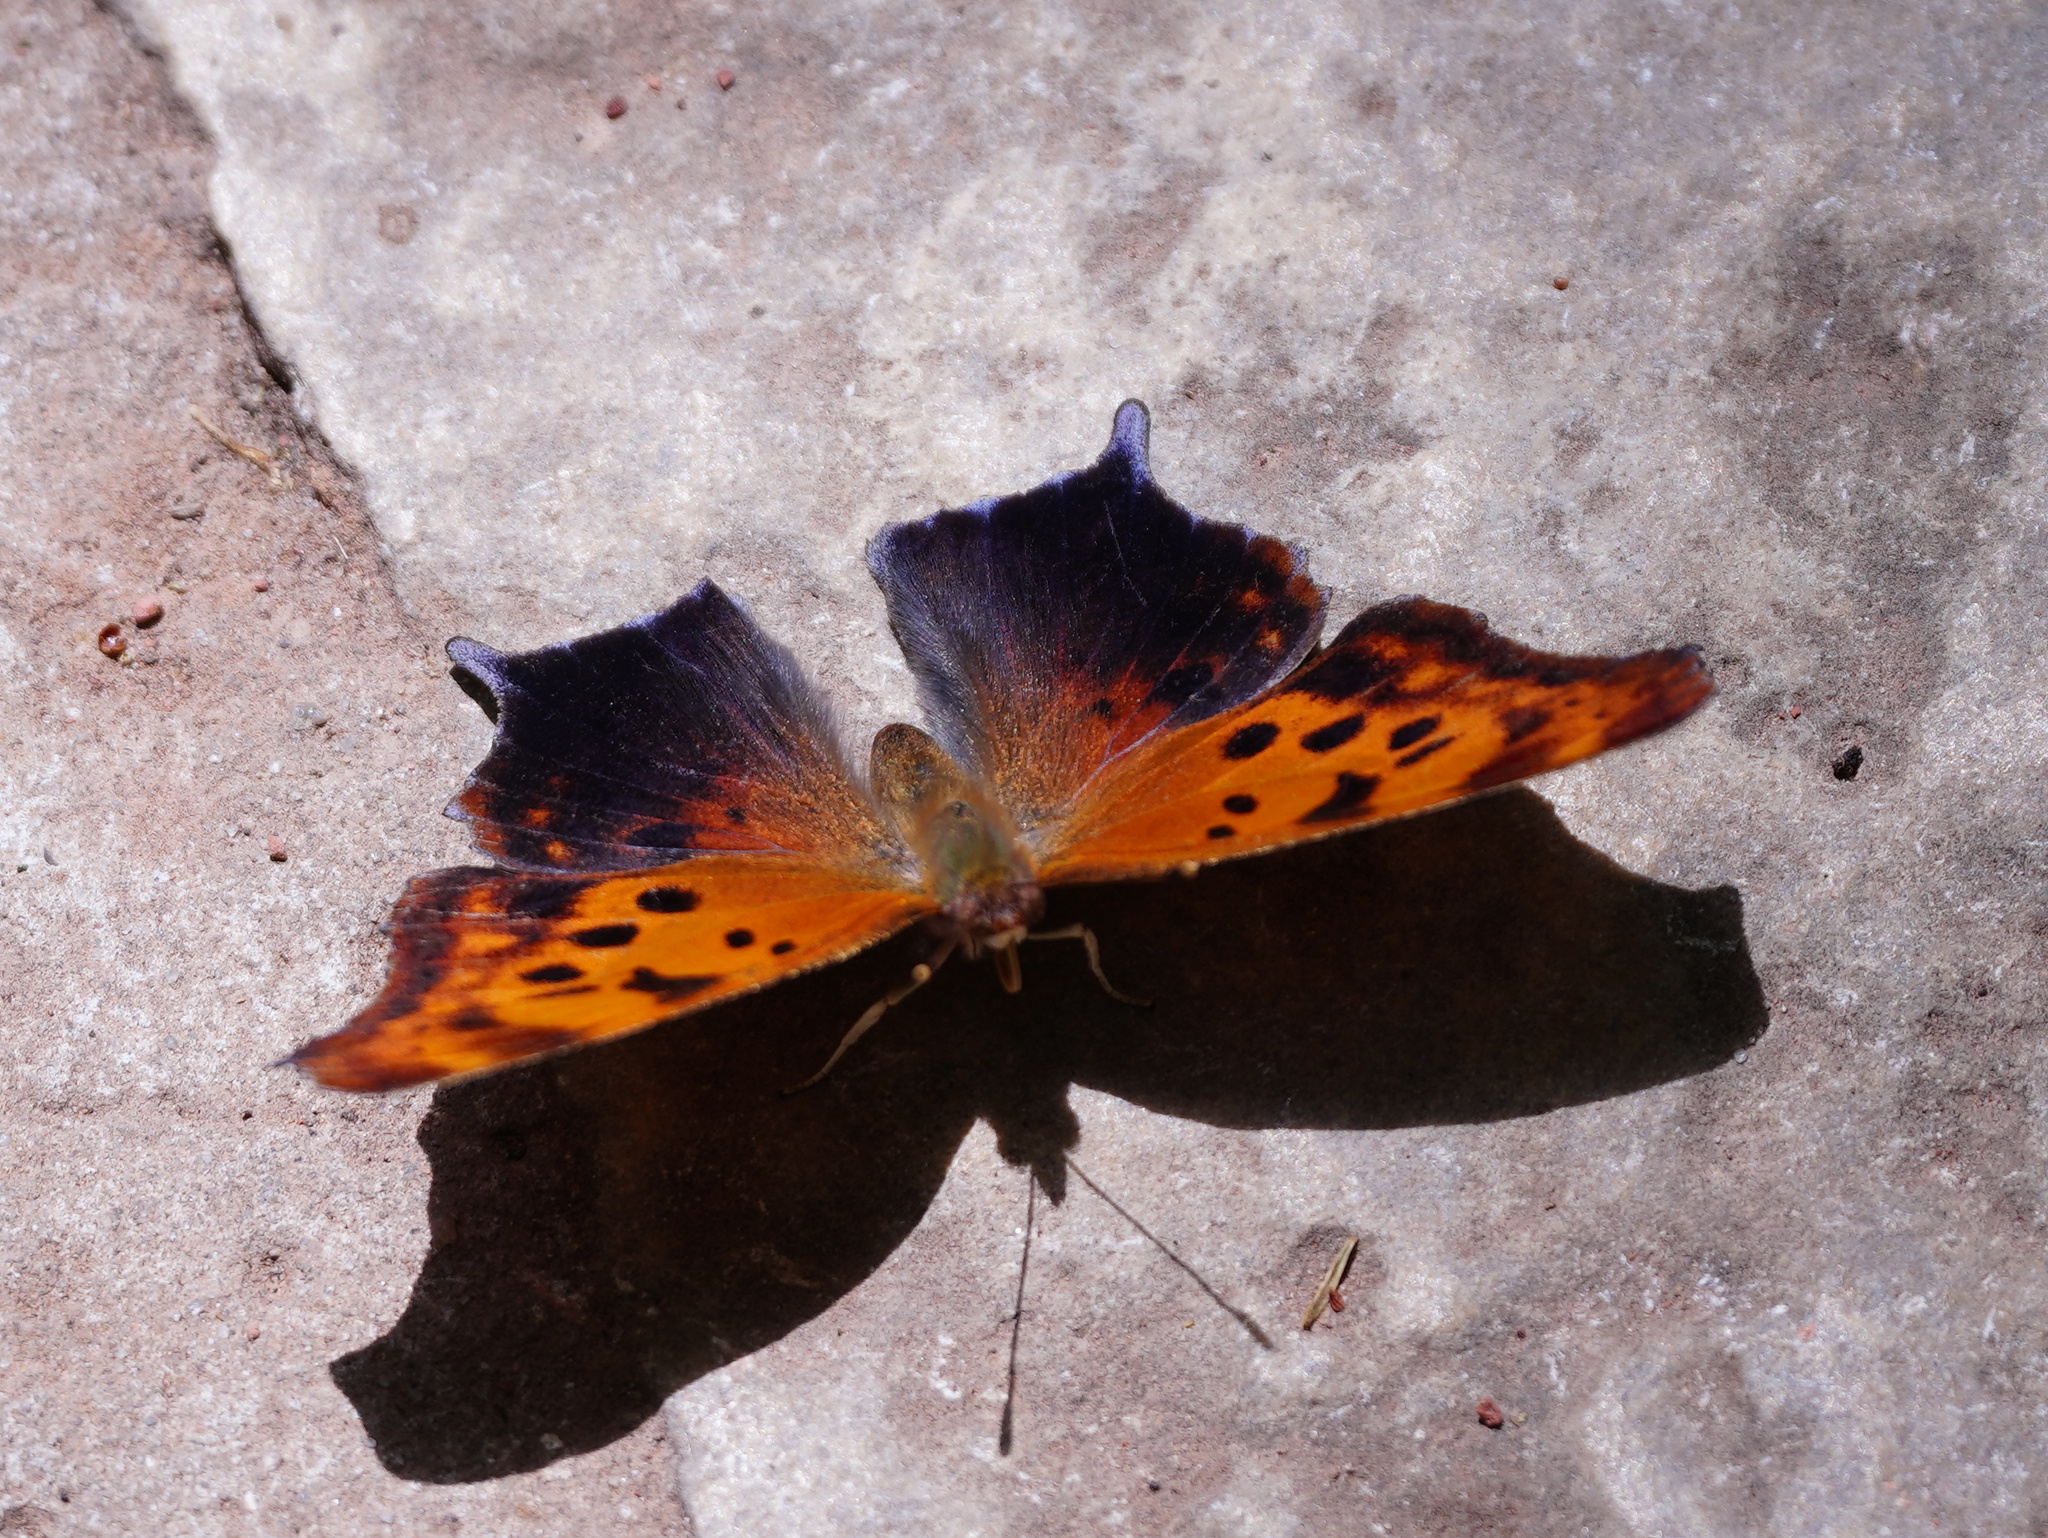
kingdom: Animalia
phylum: Arthropoda
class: Insecta
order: Lepidoptera
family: Nymphalidae
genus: Polygonia
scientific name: Polygonia interrogationis
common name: Question mark
